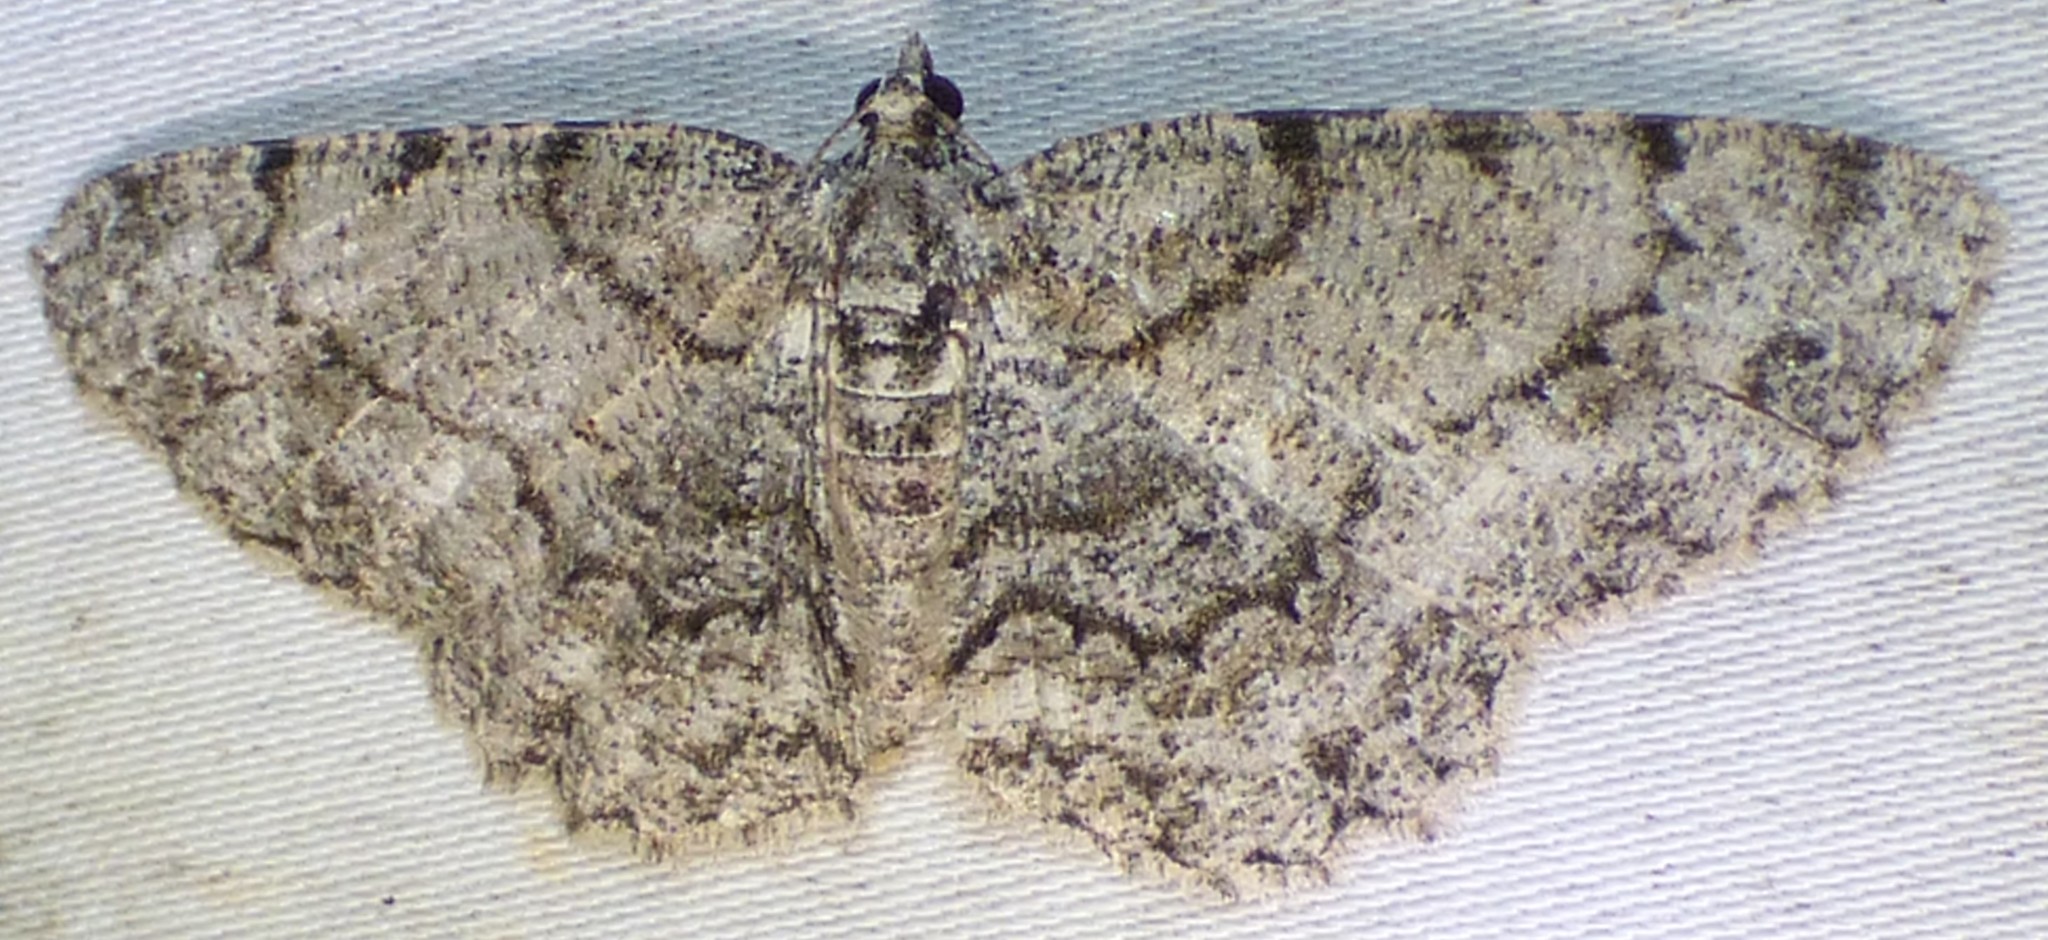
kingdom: Animalia
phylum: Arthropoda
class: Insecta
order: Lepidoptera
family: Geometridae
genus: Protoboarmia
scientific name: Protoboarmia porcelaria
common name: Porcelain gray
